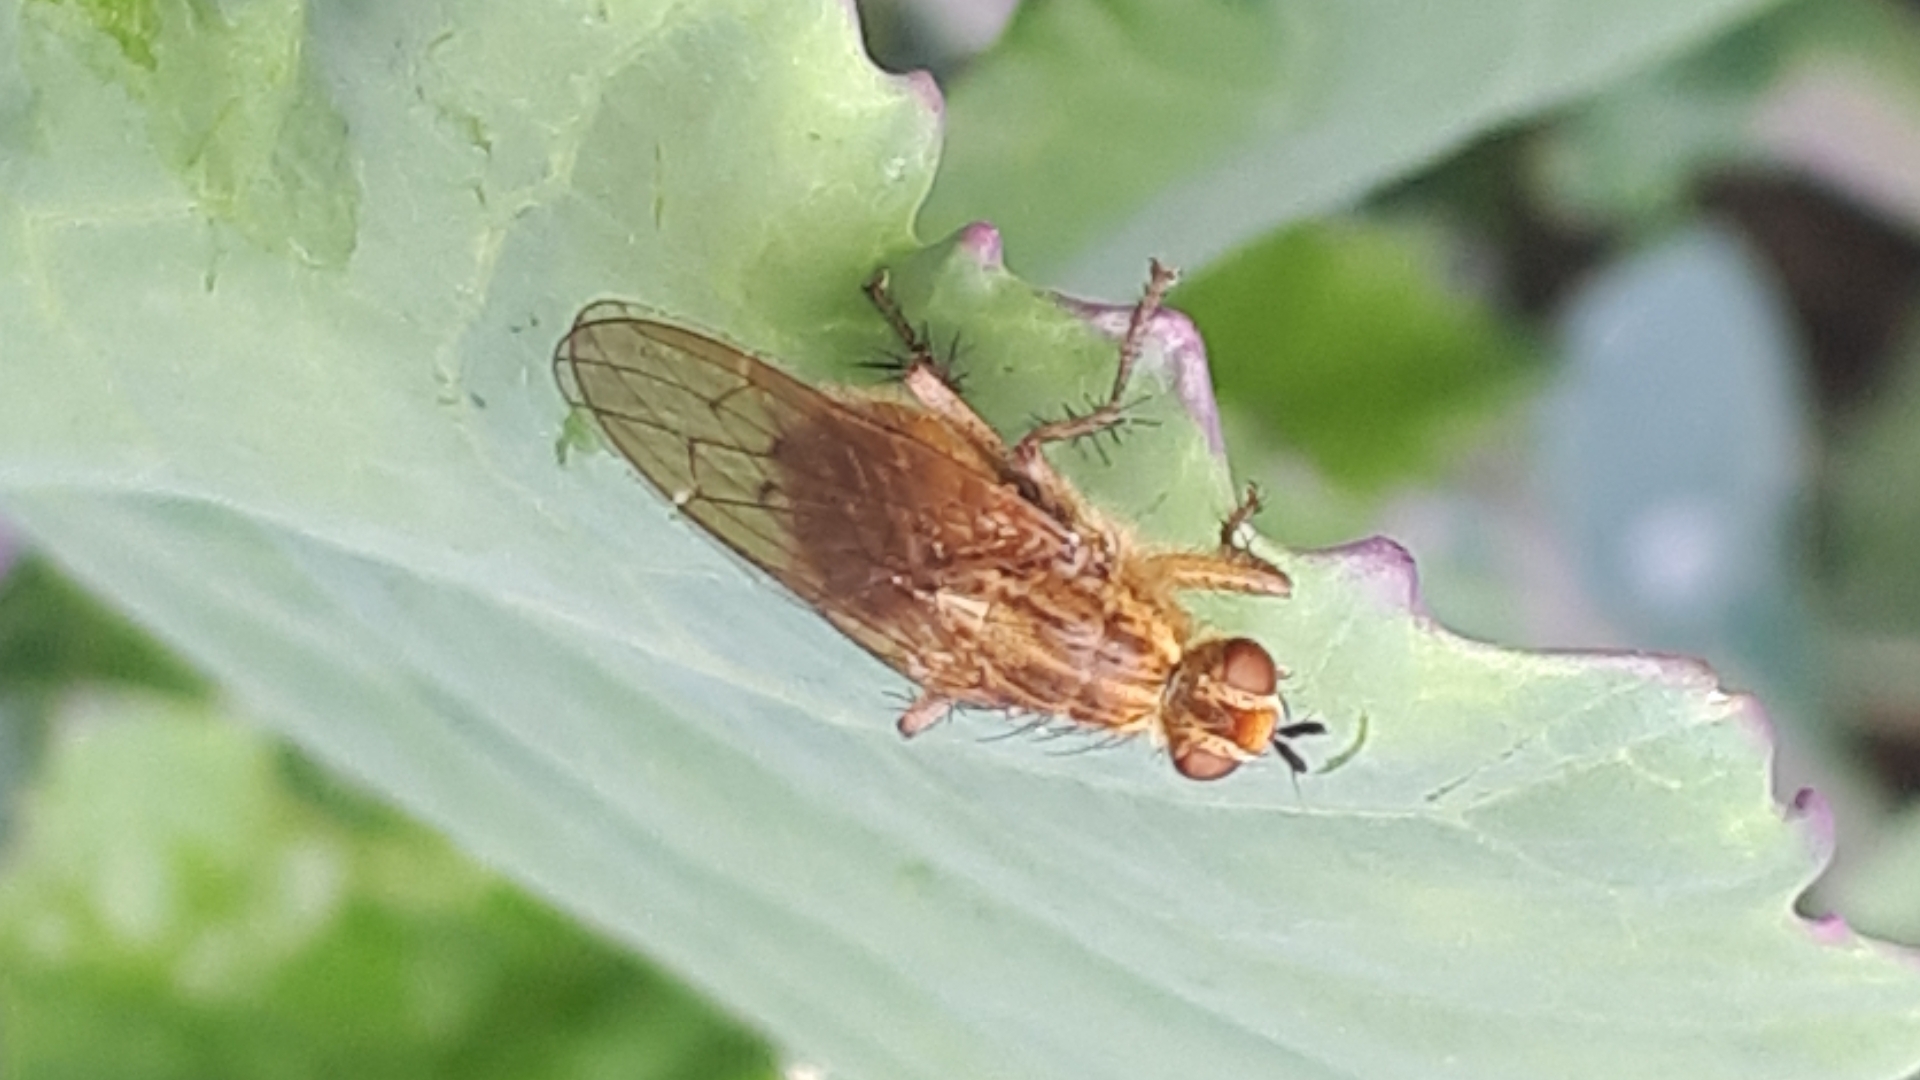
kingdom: Animalia
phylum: Arthropoda
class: Insecta
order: Diptera
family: Scathophagidae
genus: Scathophaga
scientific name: Scathophaga stercoraria
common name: Yellow dung fly
